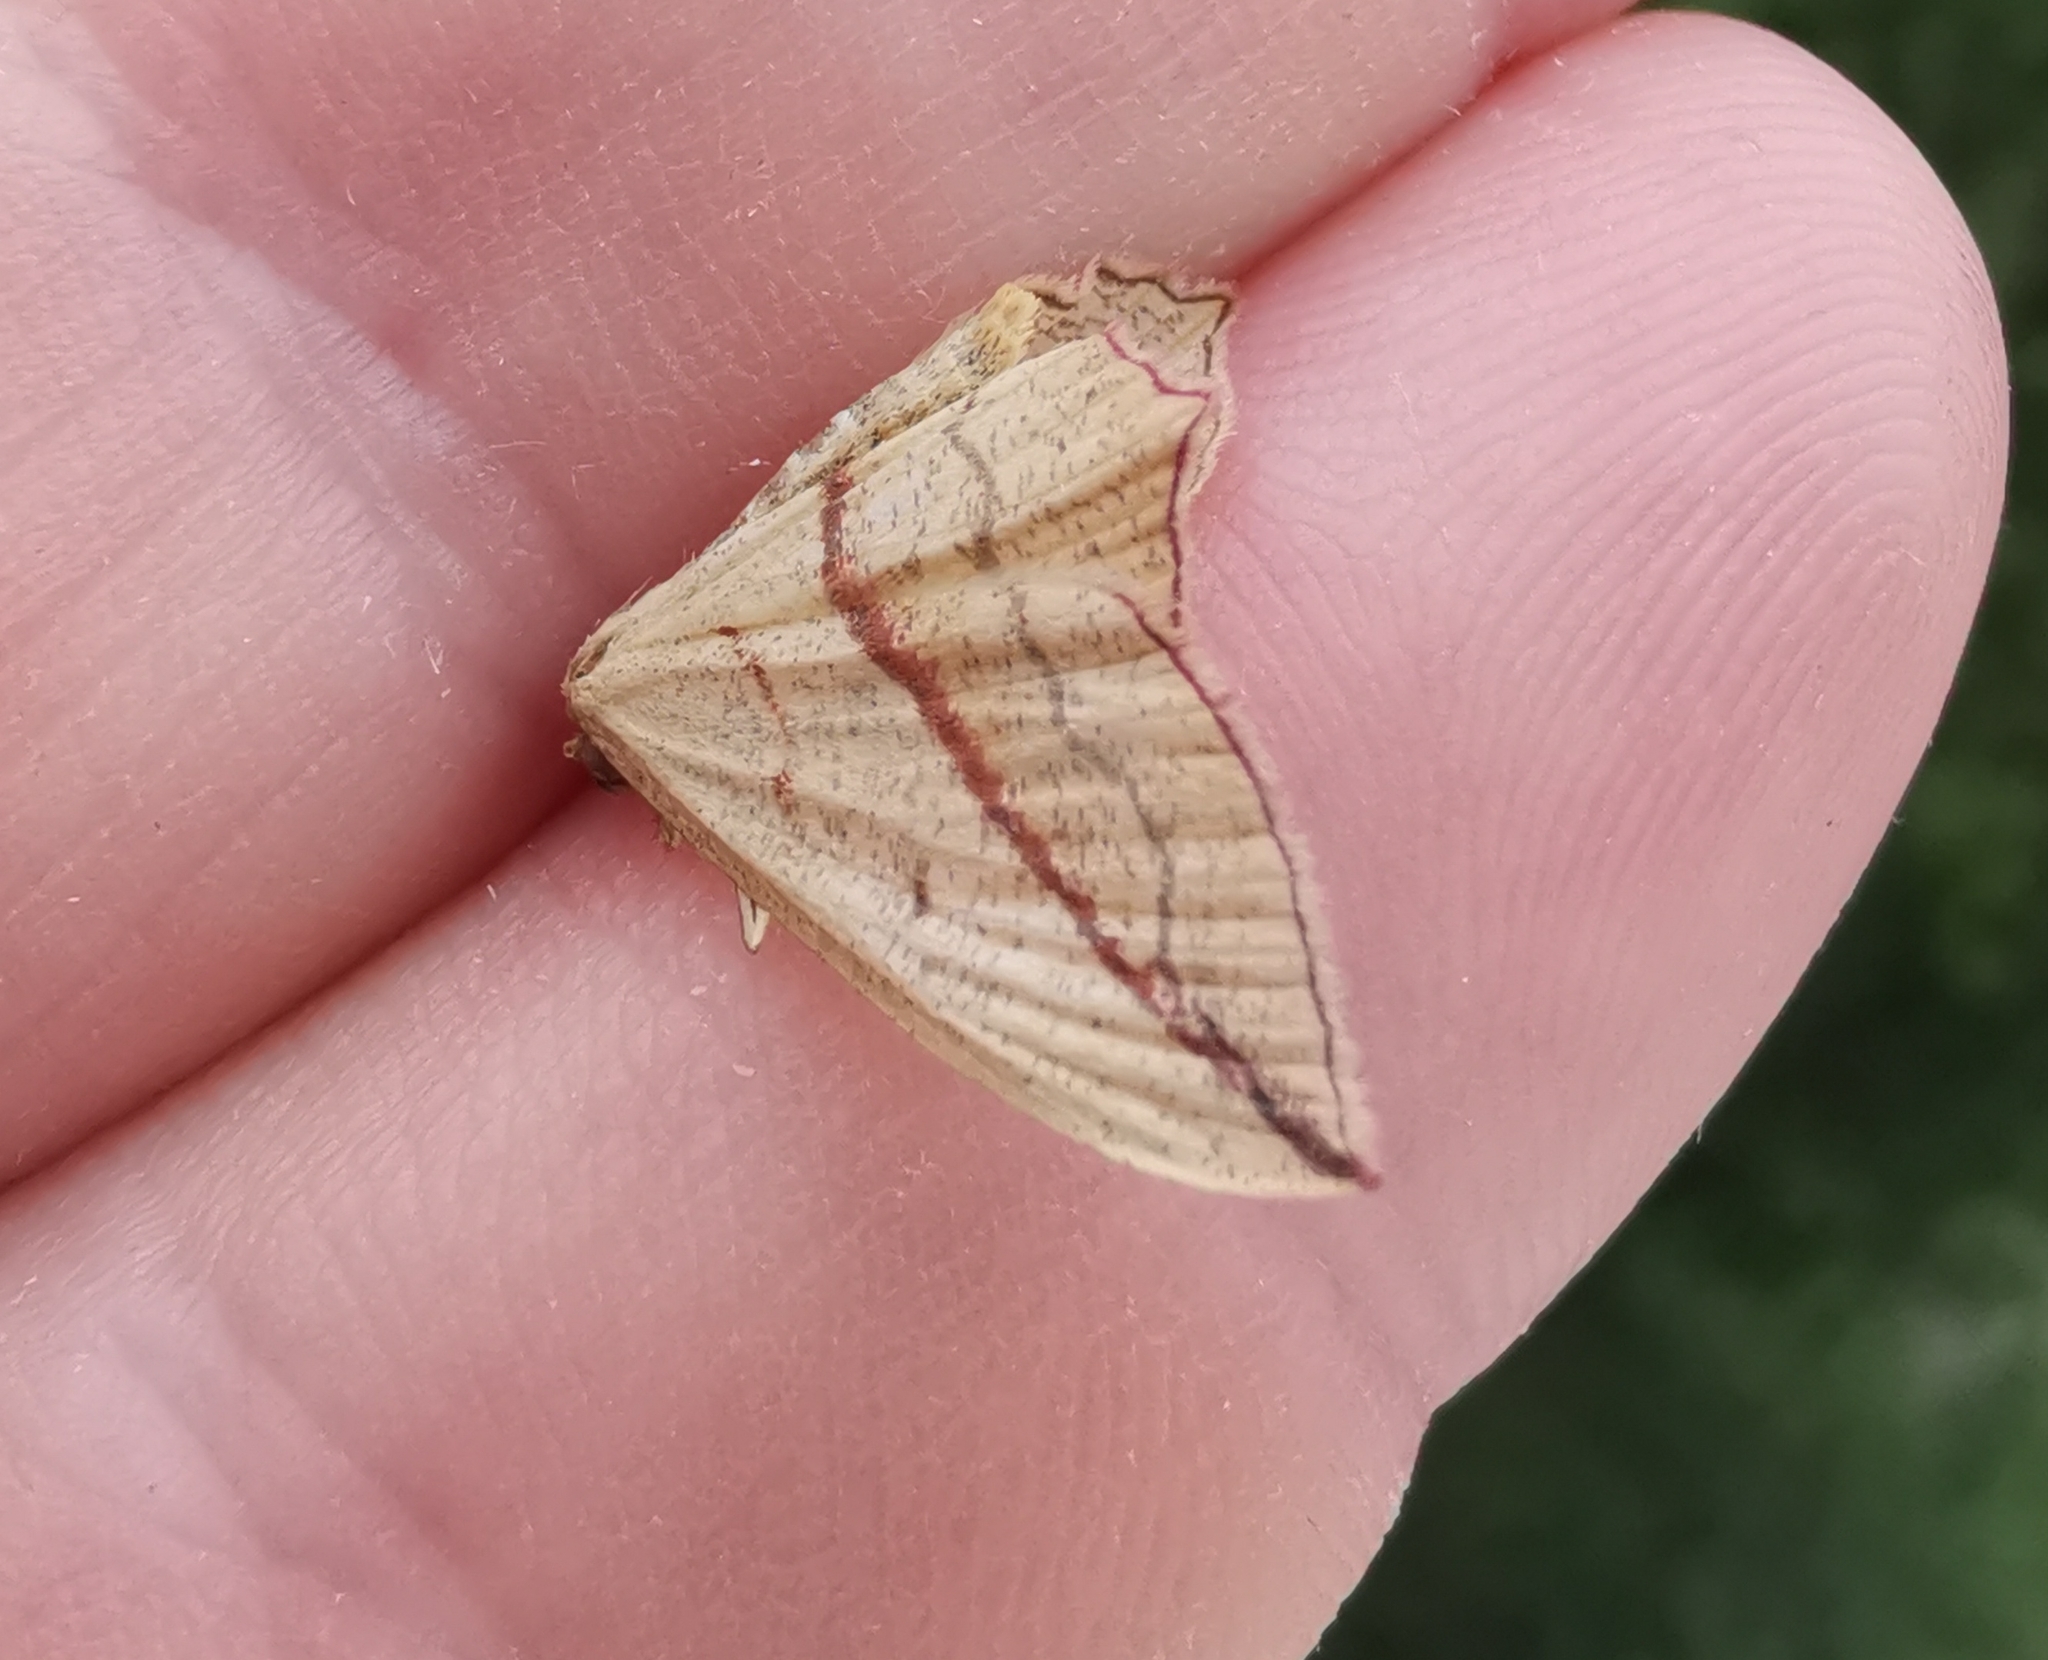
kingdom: Animalia
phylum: Arthropoda
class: Insecta
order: Lepidoptera
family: Geometridae
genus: Timandra
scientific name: Timandra comae
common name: Blood-vein
